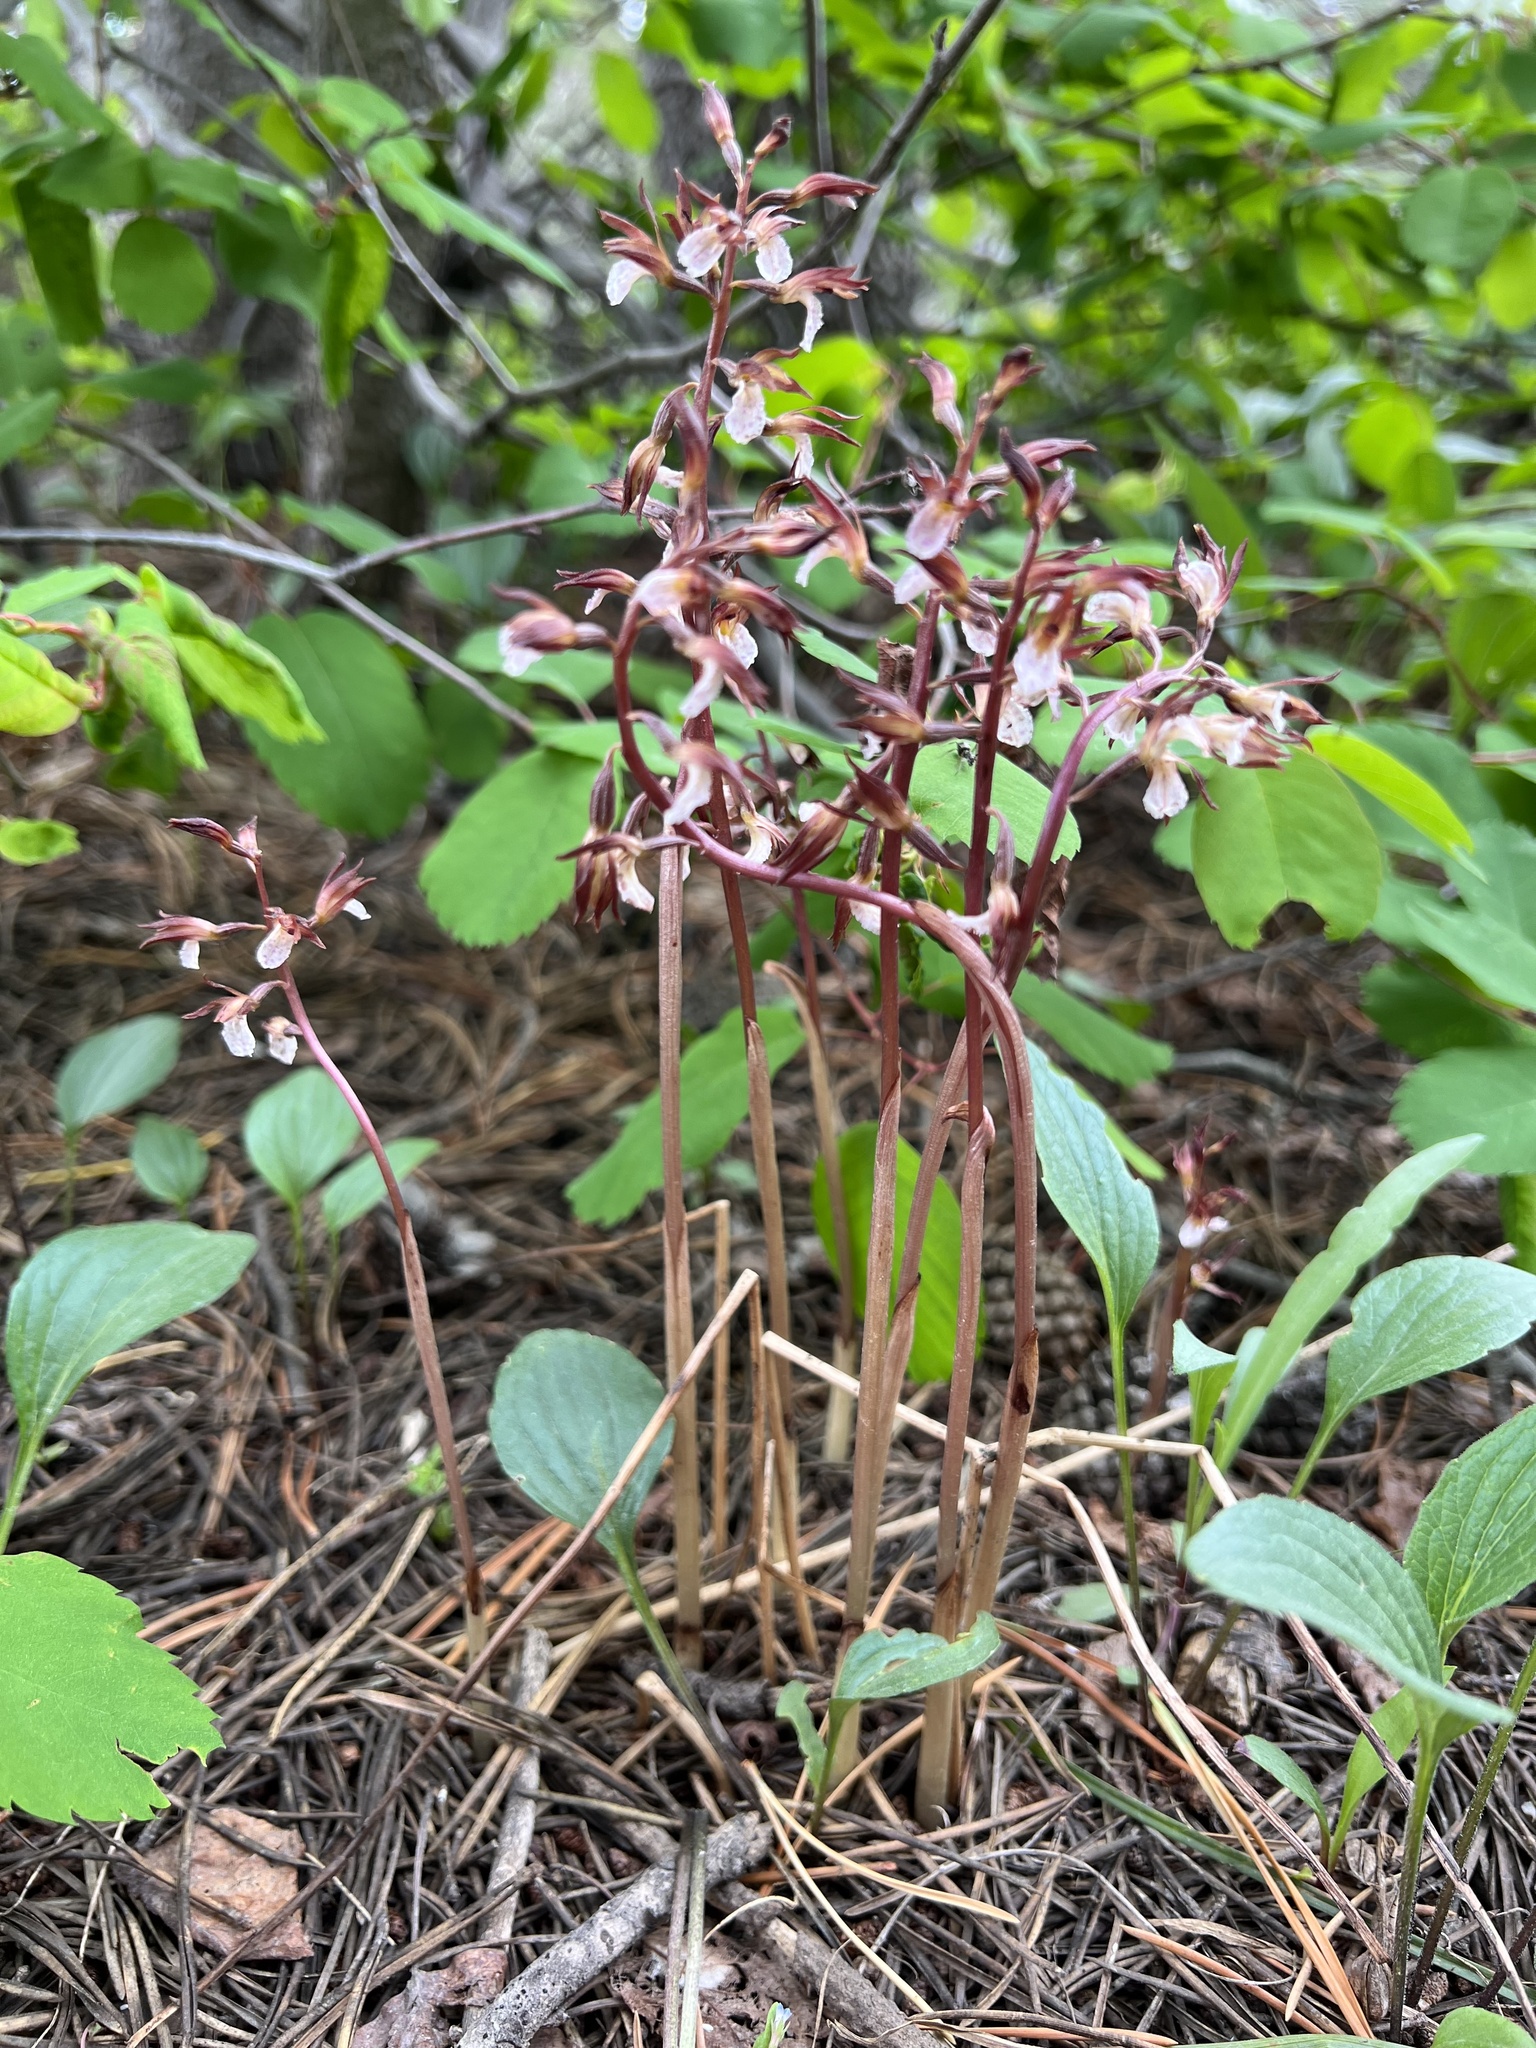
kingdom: Plantae
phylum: Tracheophyta
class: Liliopsida
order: Asparagales
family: Orchidaceae
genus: Corallorhiza
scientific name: Corallorhiza wisteriana
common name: Spring coralroot
